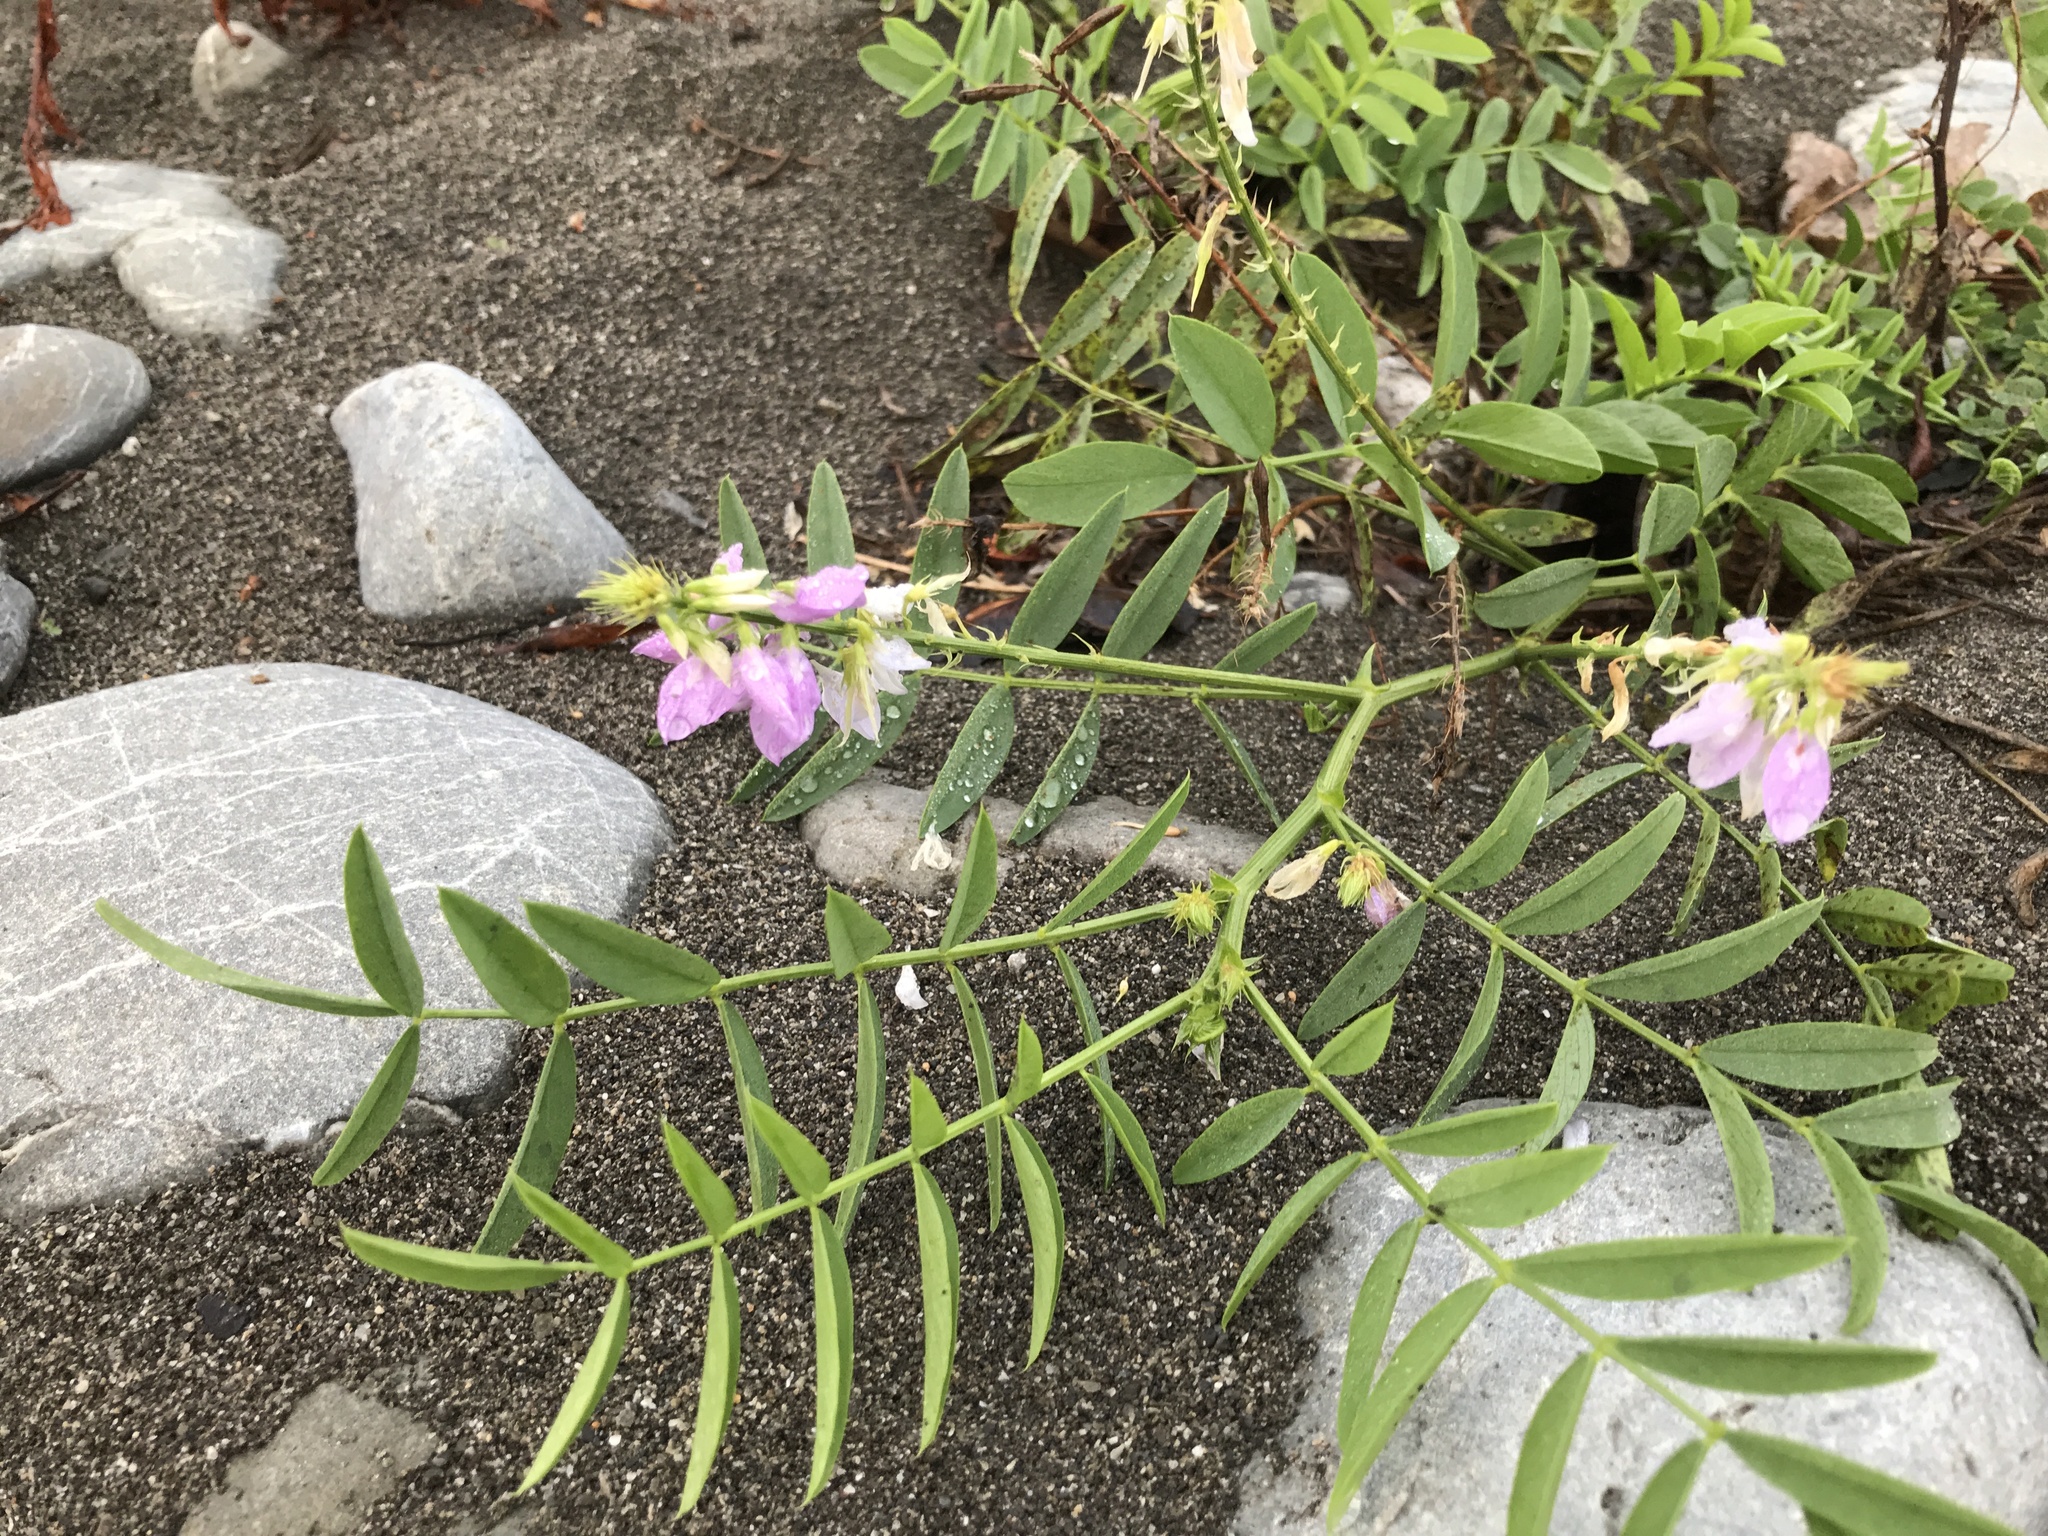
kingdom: Plantae
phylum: Tracheophyta
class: Magnoliopsida
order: Fabales
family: Fabaceae
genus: Galega
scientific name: Galega officinalis
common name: Goat's-rue
